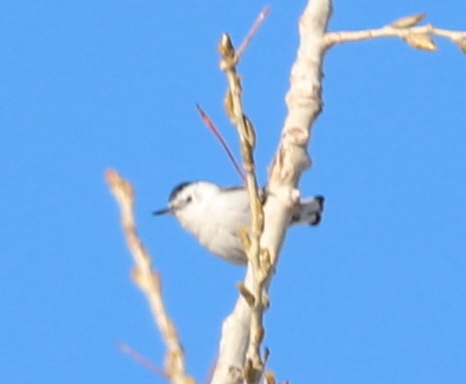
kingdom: Animalia
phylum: Chordata
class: Aves
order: Passeriformes
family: Sittidae
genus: Sitta
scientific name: Sitta carolinensis
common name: White-breasted nuthatch
